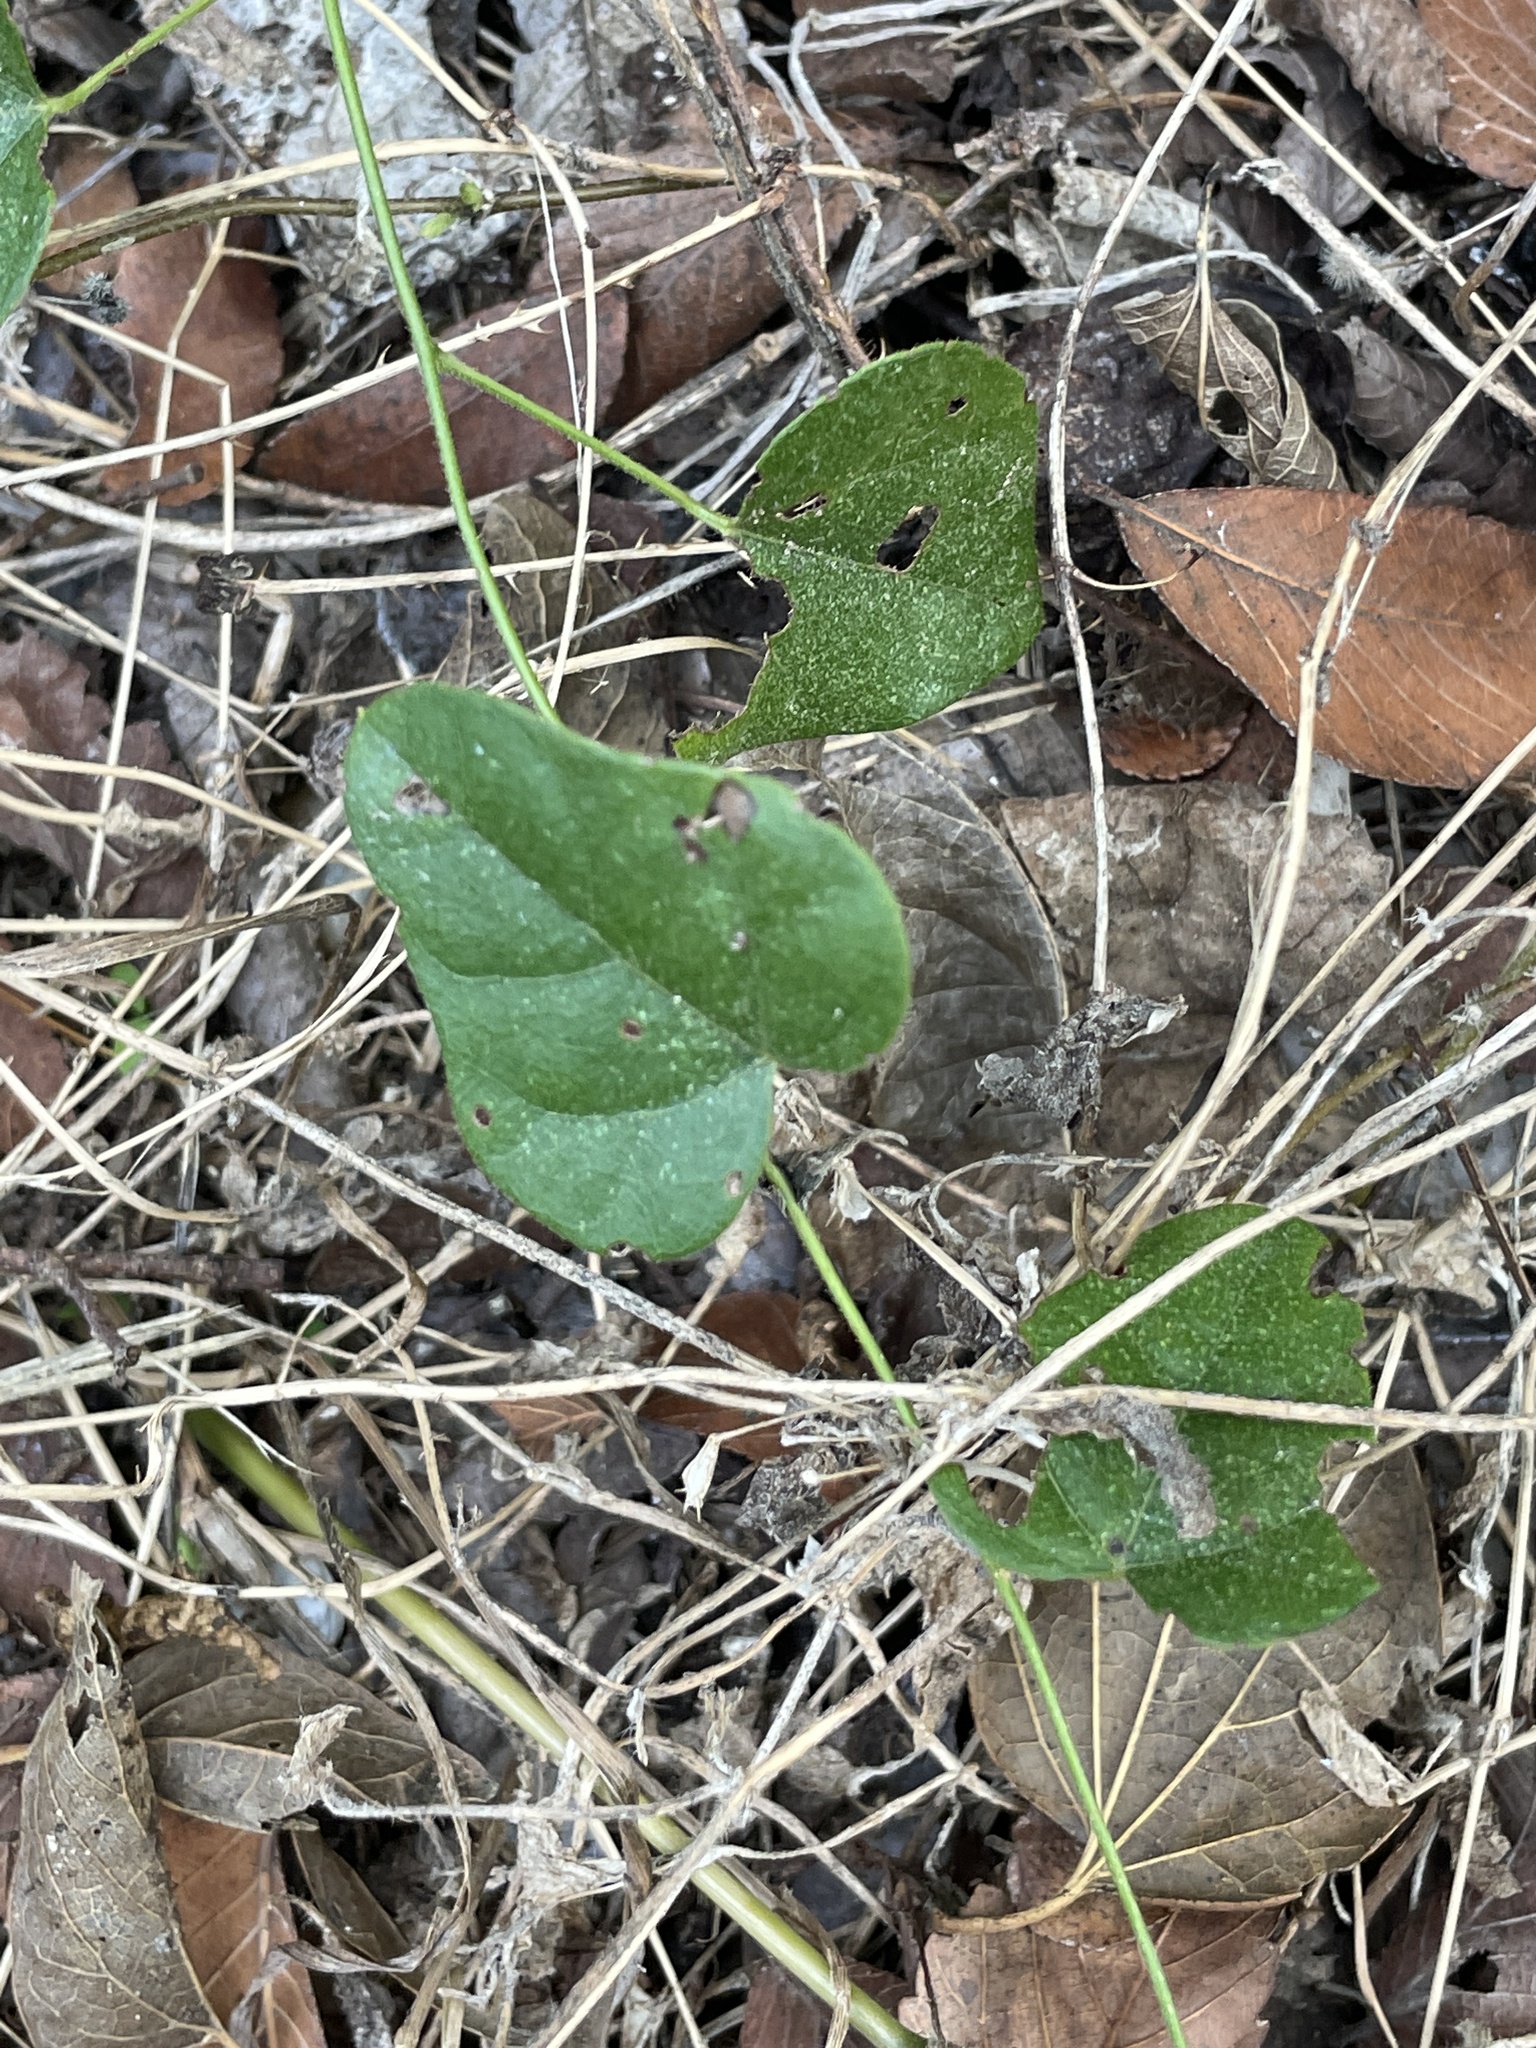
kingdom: Plantae
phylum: Tracheophyta
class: Magnoliopsida
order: Ranunculales
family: Menispermaceae
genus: Cocculus
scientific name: Cocculus carolinus
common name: Carolina moonseed
